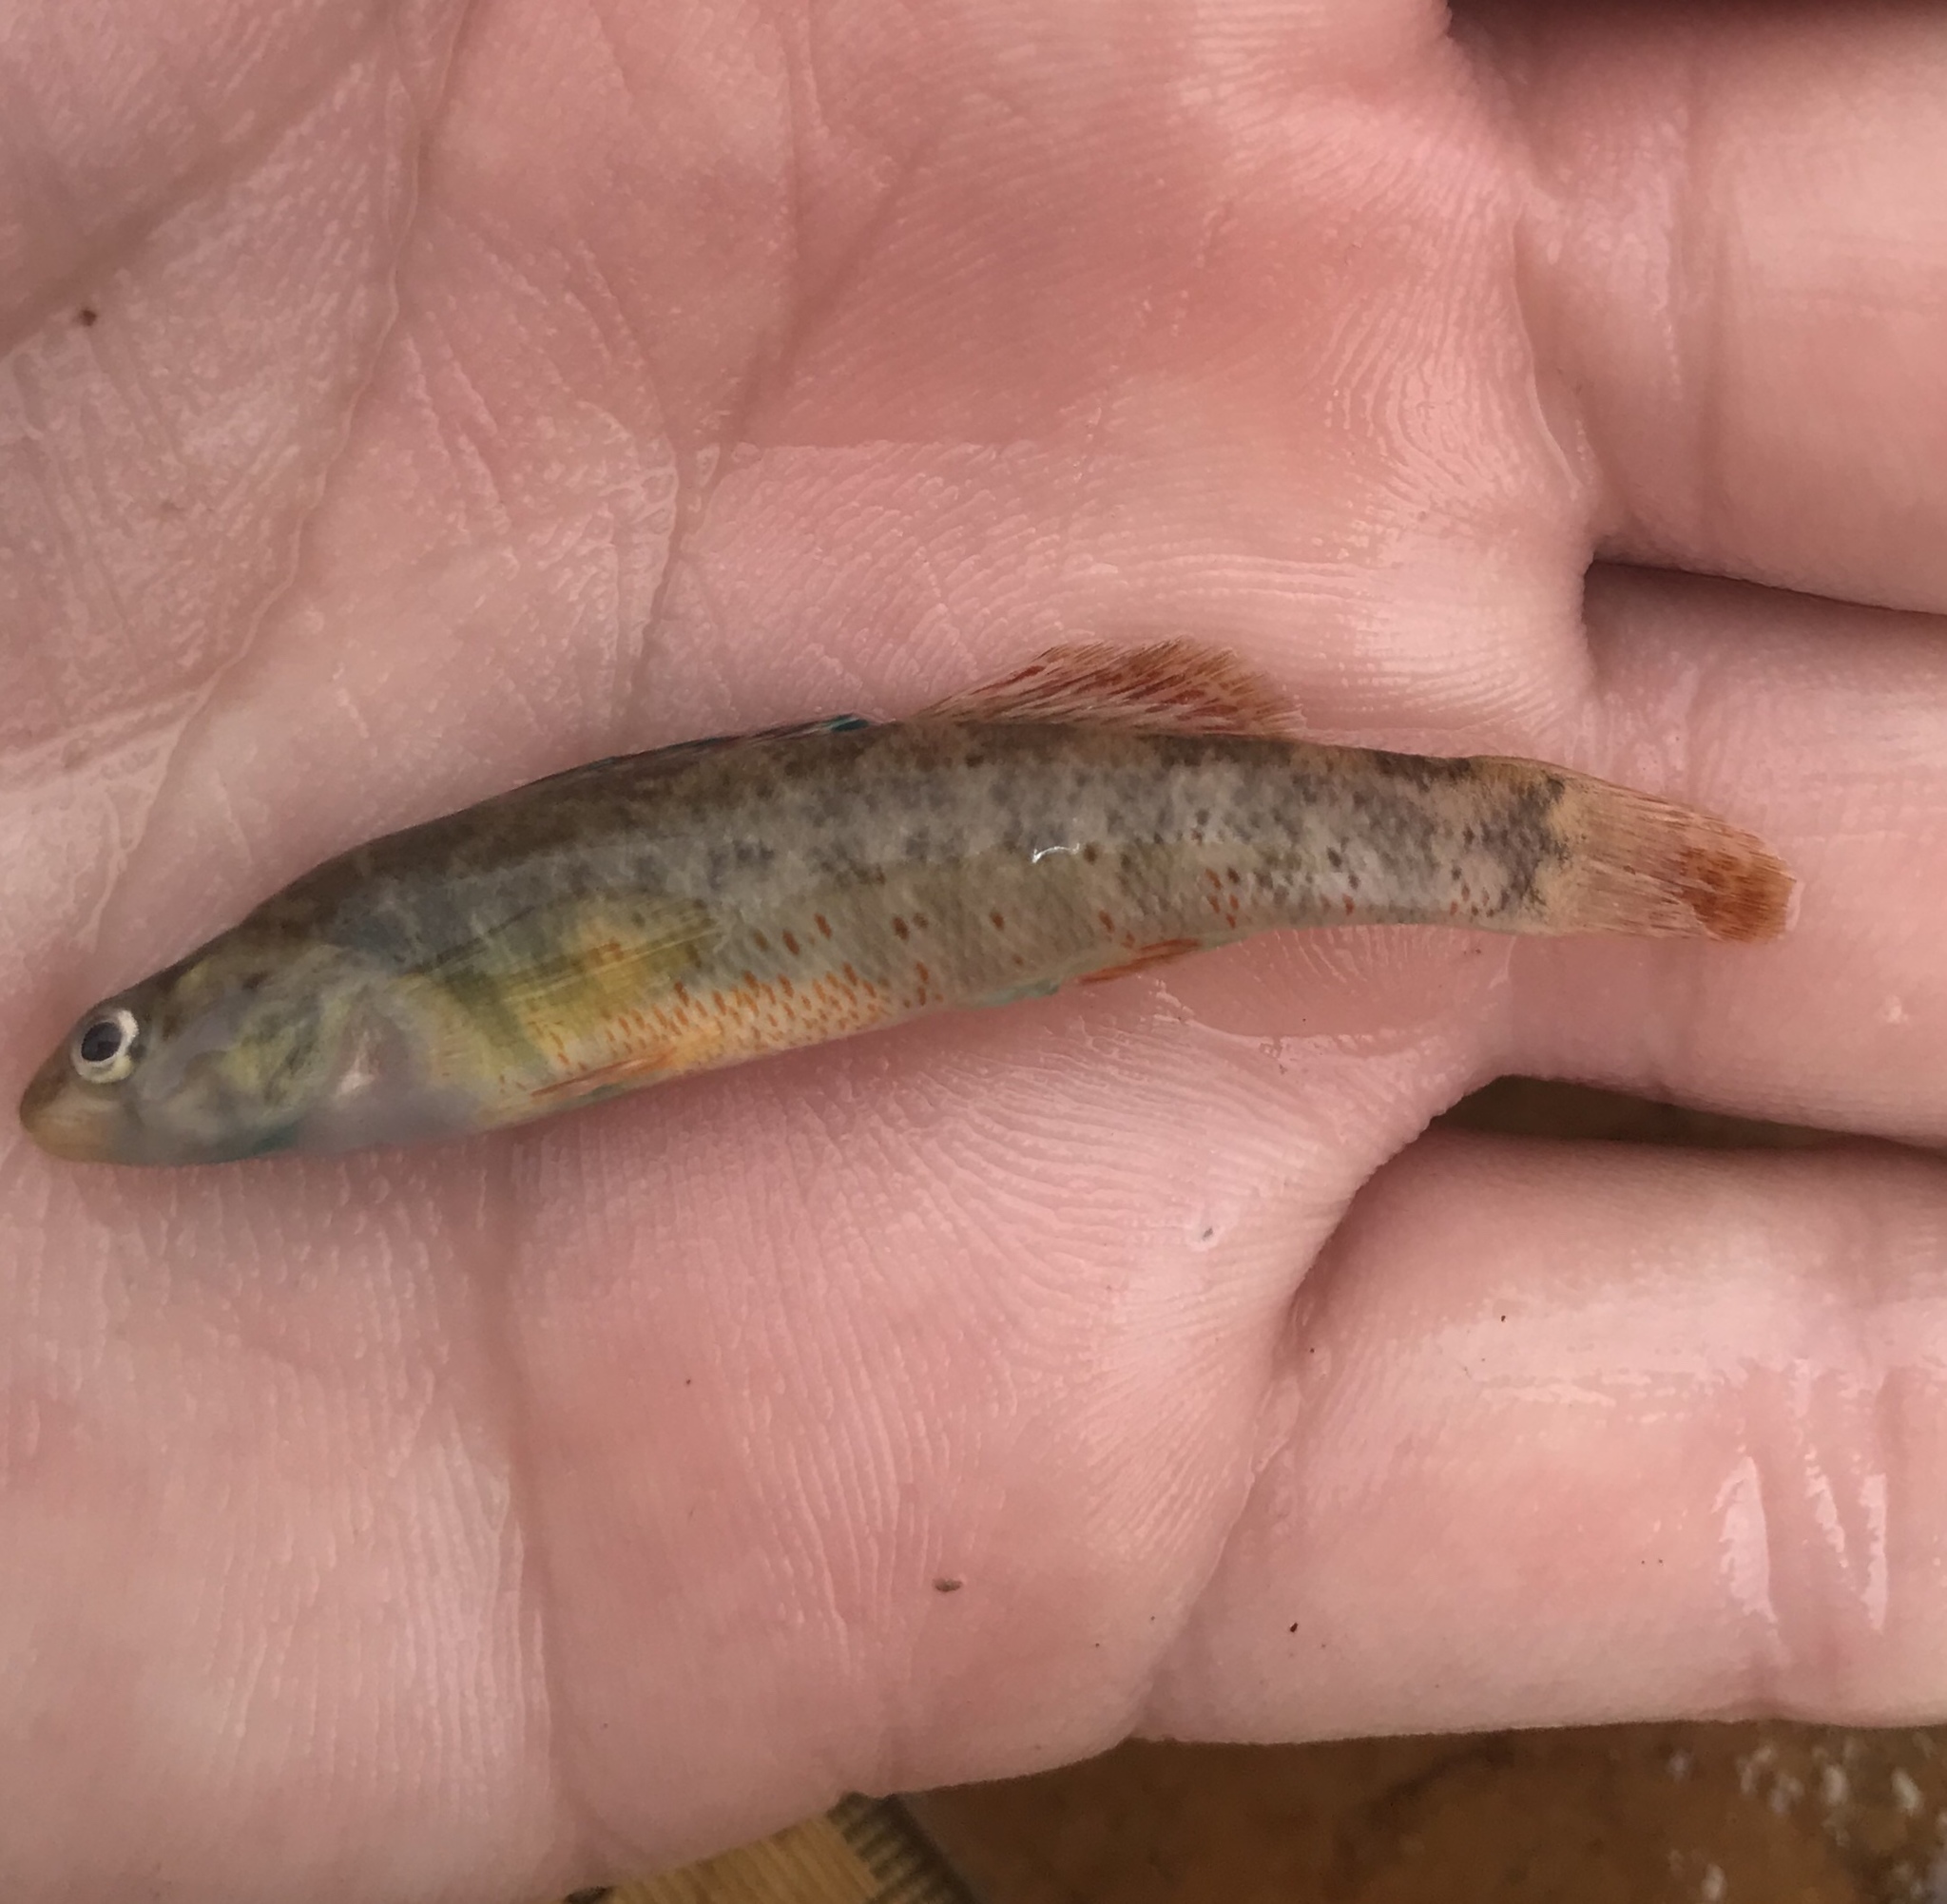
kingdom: Animalia
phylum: Chordata
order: Perciformes
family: Percidae
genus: Etheostoma
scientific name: Etheostoma lepidum
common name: Greenthroat darter
